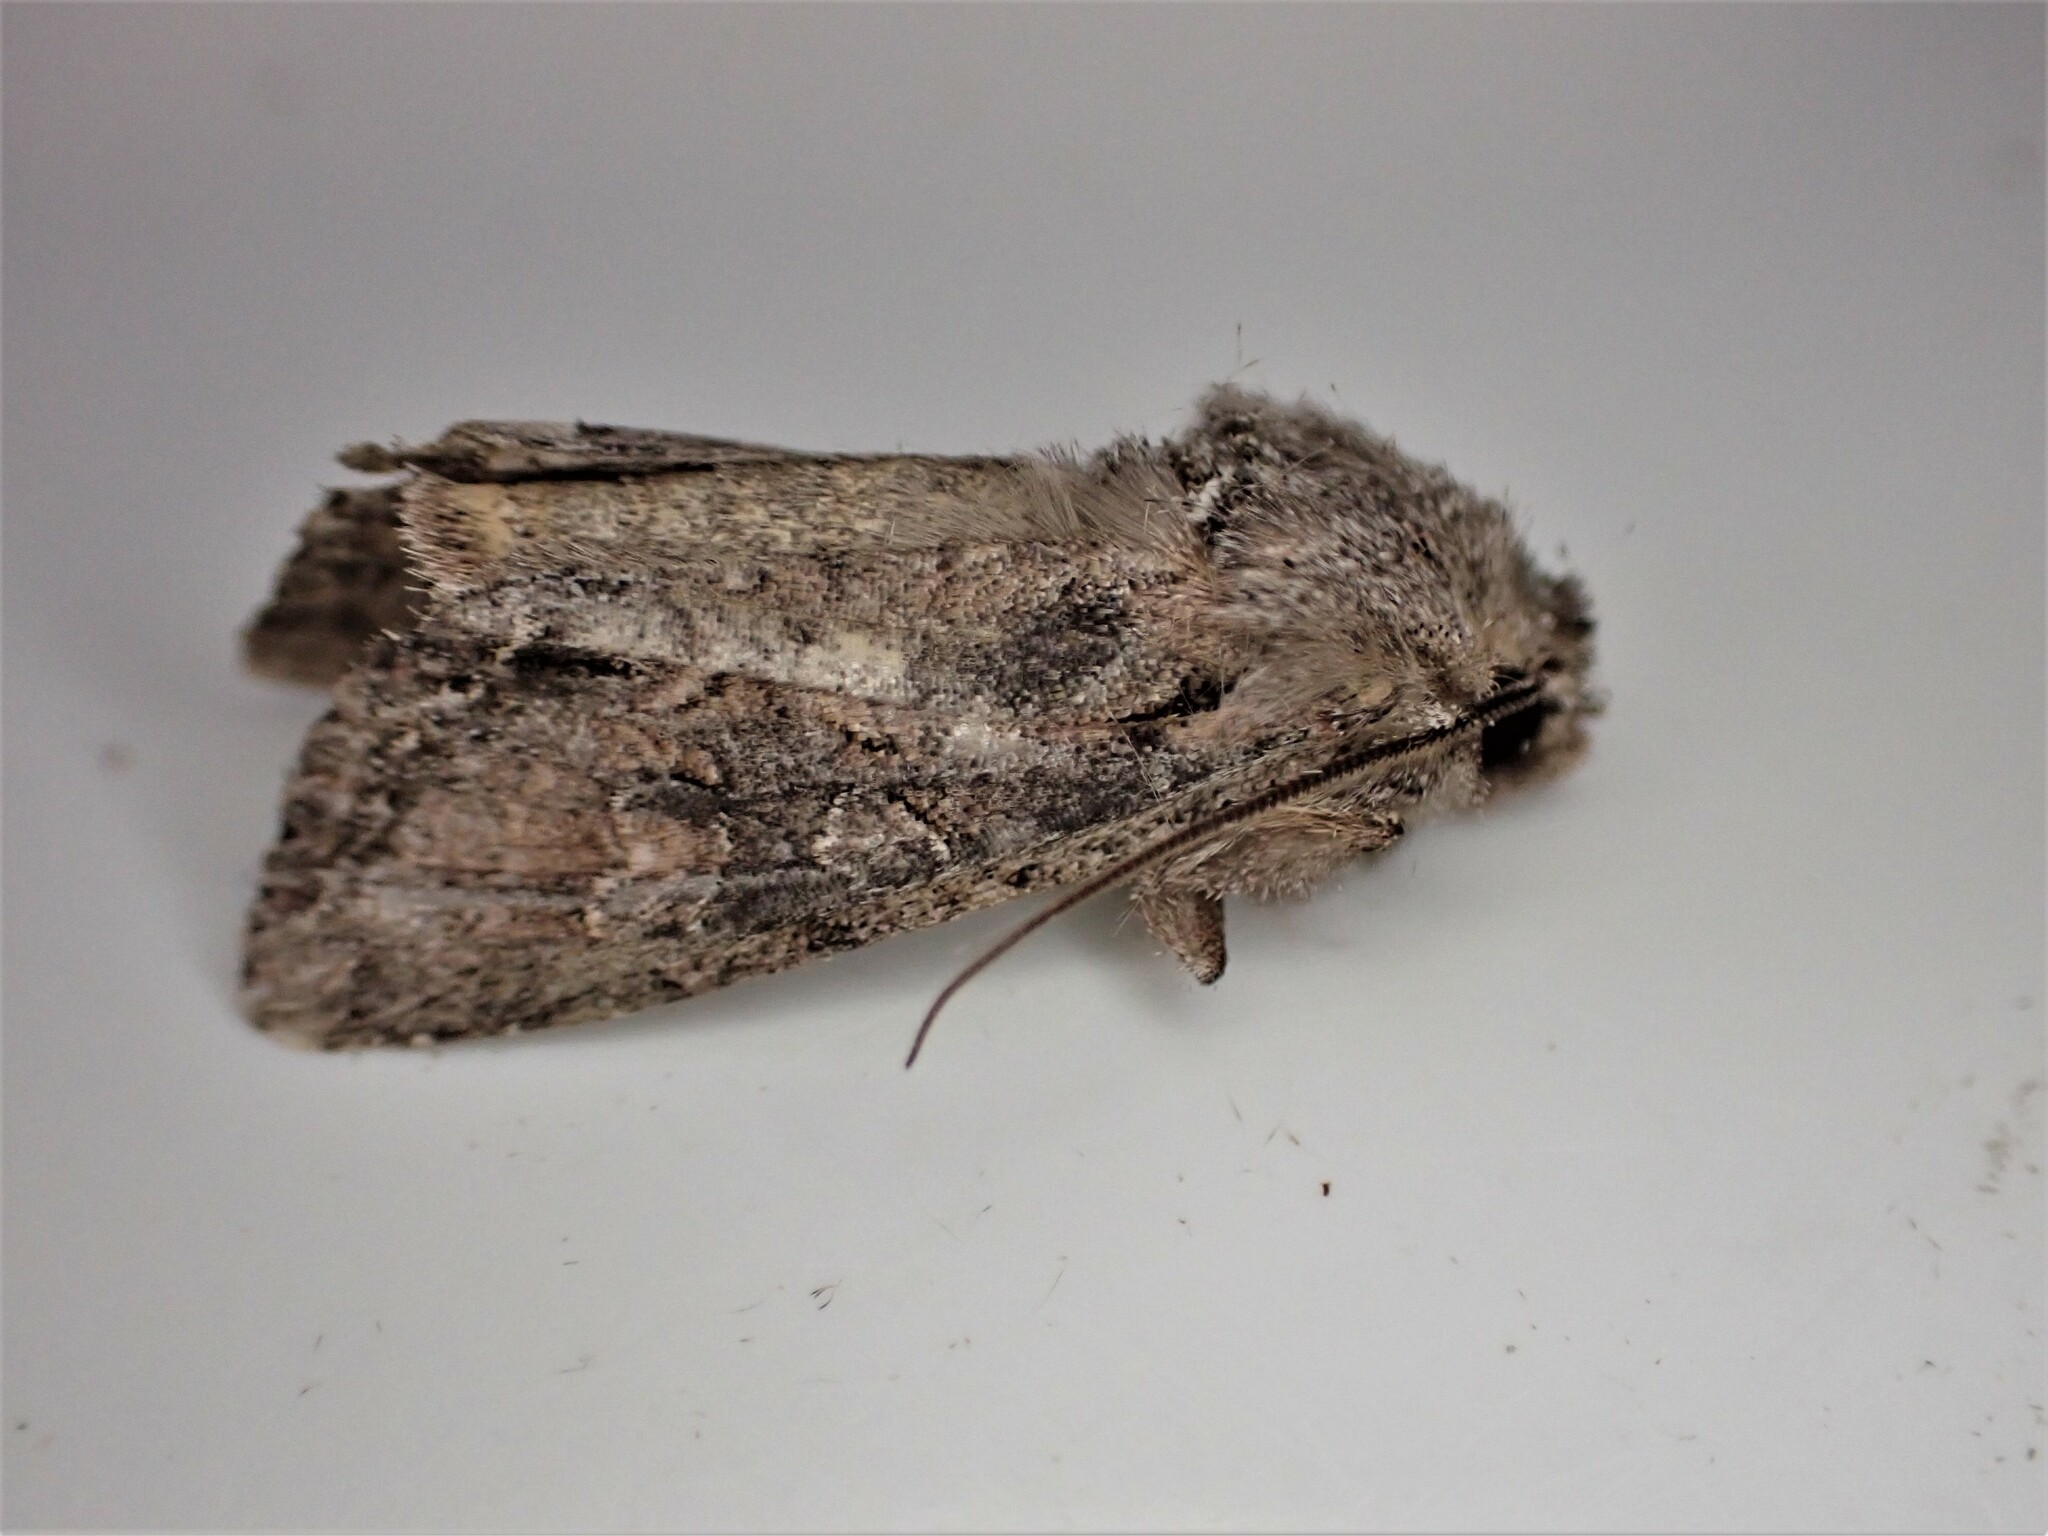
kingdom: Animalia
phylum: Arthropoda
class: Insecta
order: Lepidoptera
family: Noctuidae
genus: Ichneutica
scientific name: Ichneutica mutans
